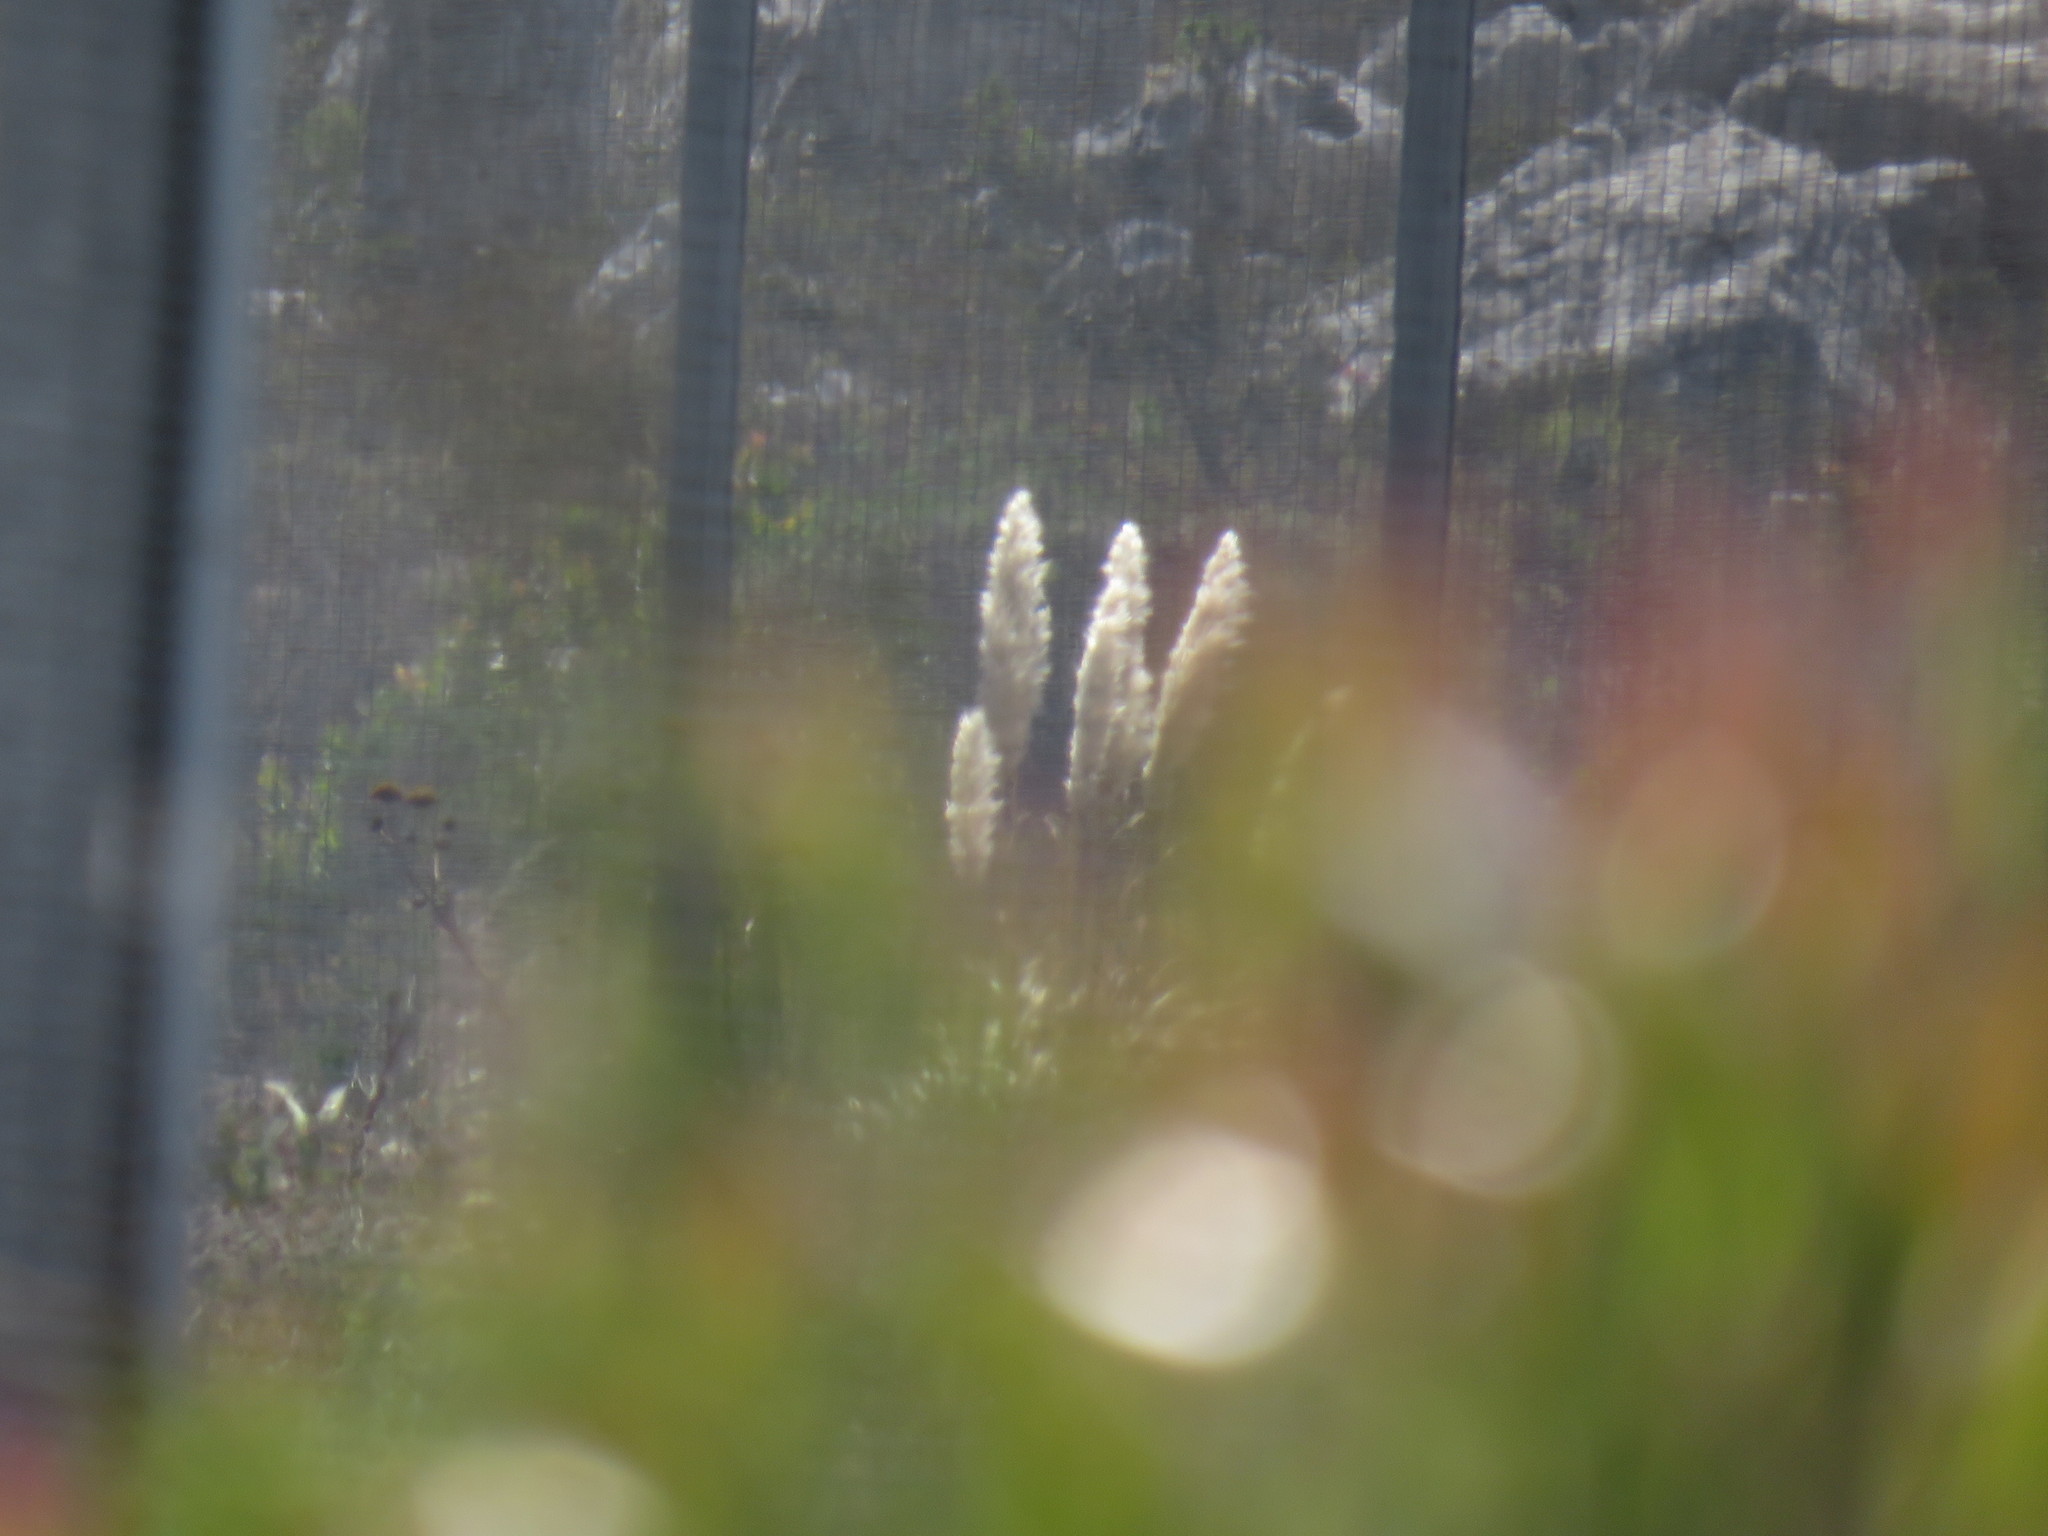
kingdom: Plantae
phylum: Tracheophyta
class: Liliopsida
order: Poales
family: Poaceae
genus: Cortaderia
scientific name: Cortaderia selloana
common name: Uruguayan pampas grass
